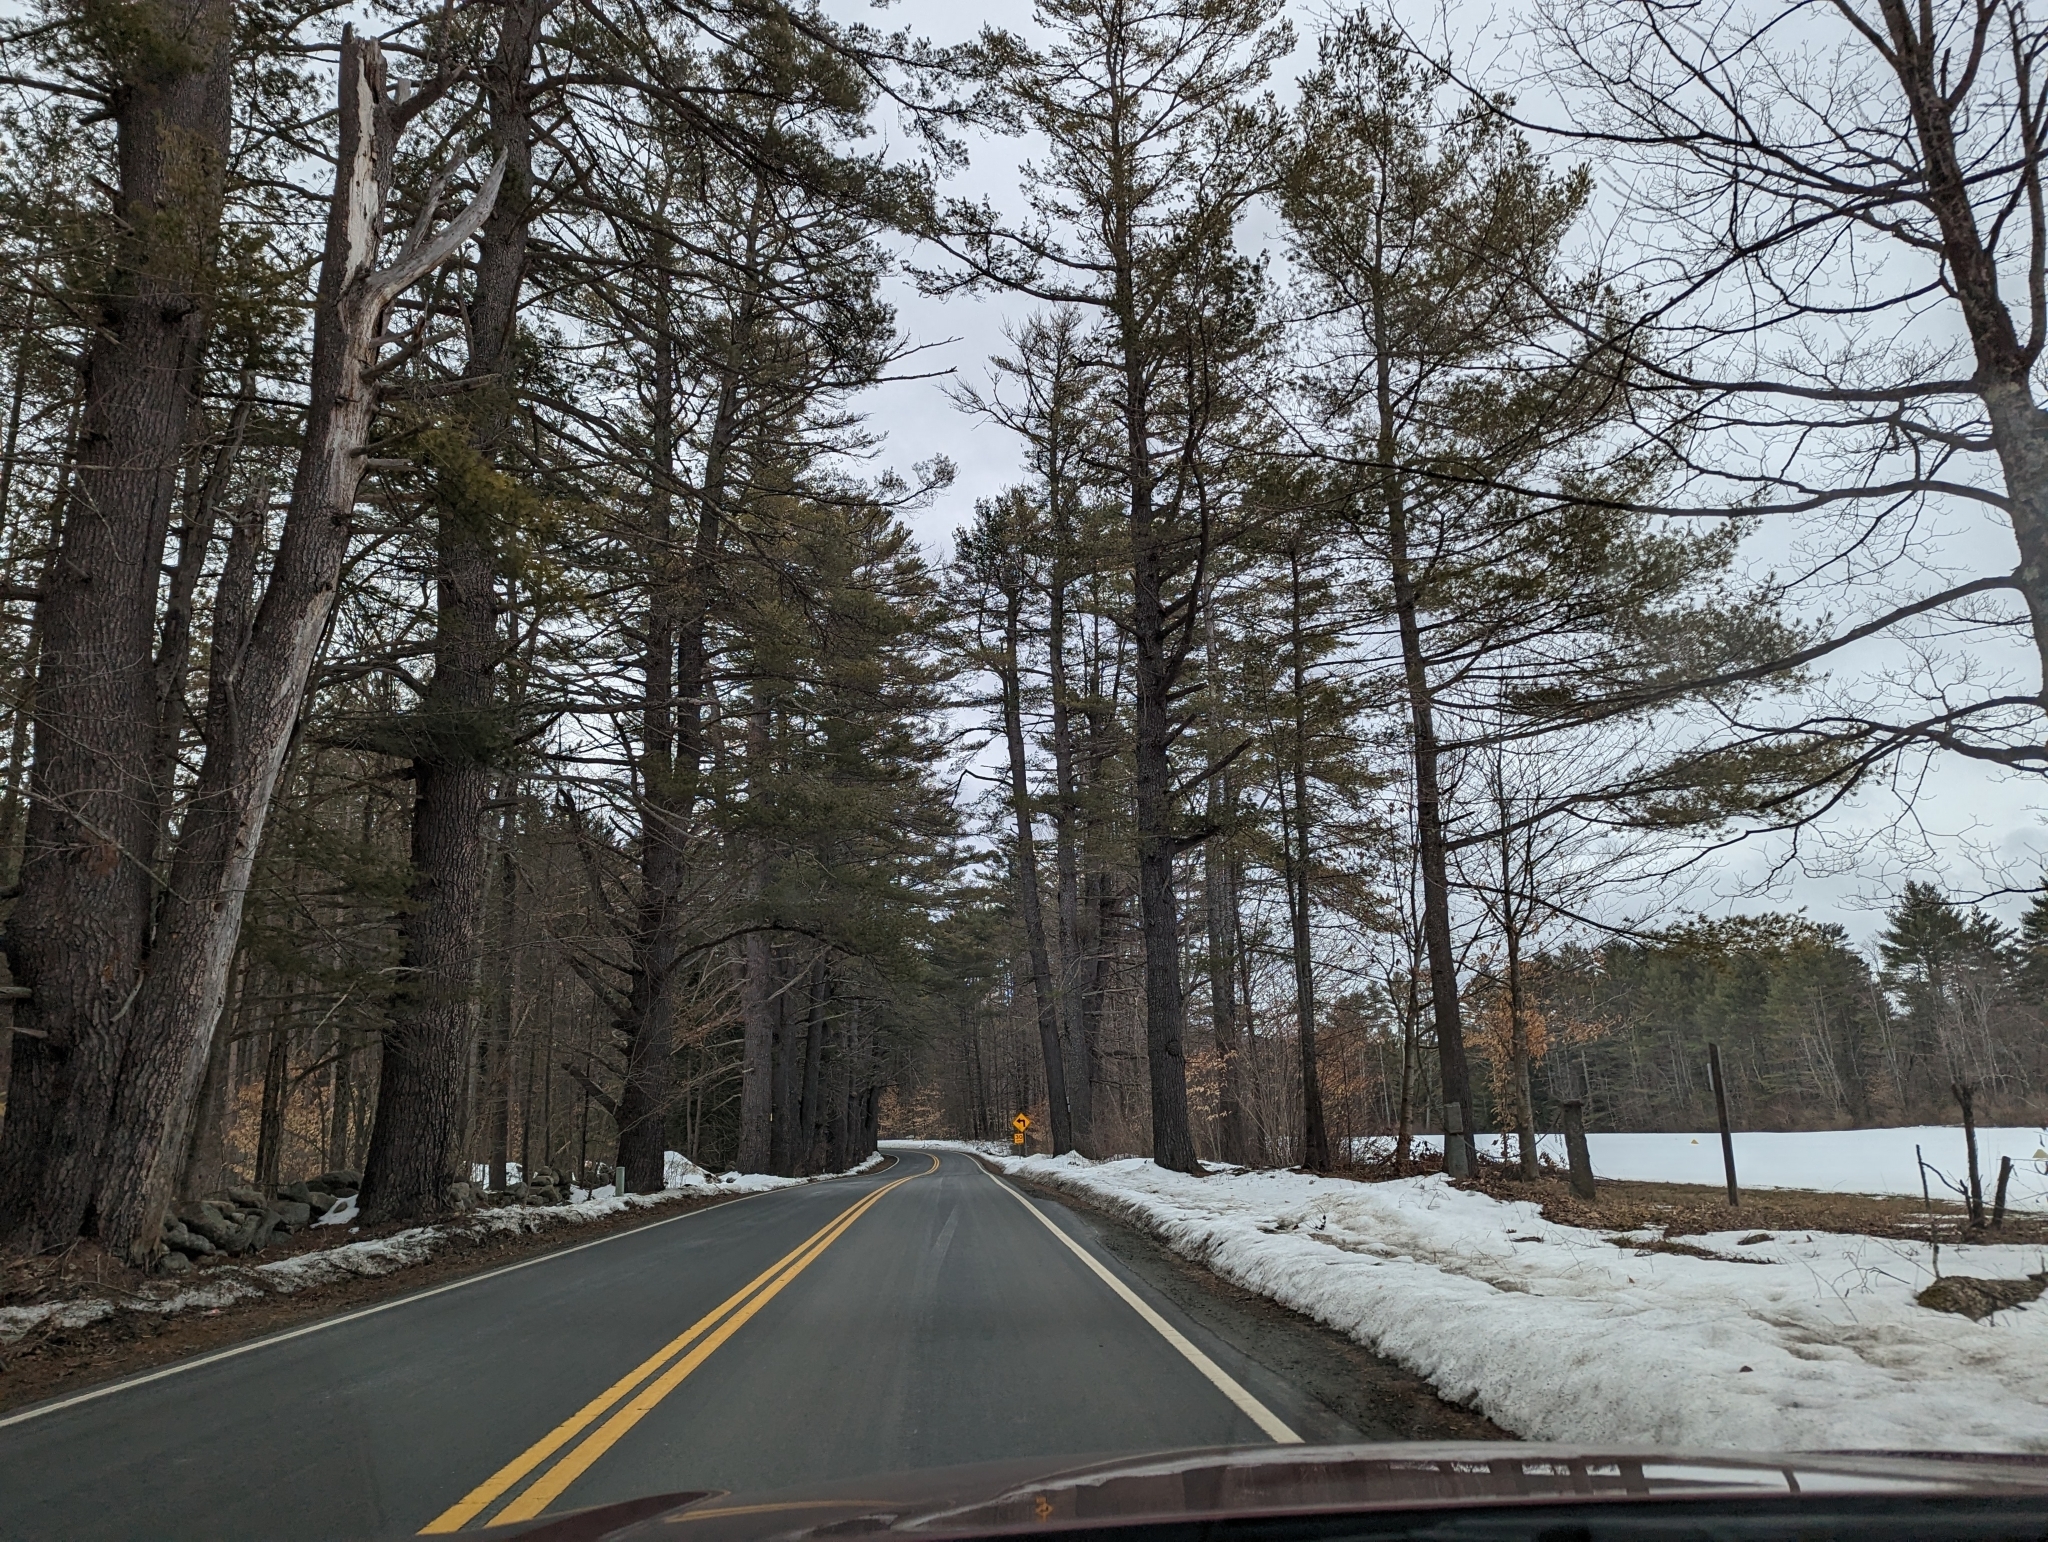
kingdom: Plantae
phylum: Tracheophyta
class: Pinopsida
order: Pinales
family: Pinaceae
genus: Pinus
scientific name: Pinus strobus
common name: Weymouth pine
